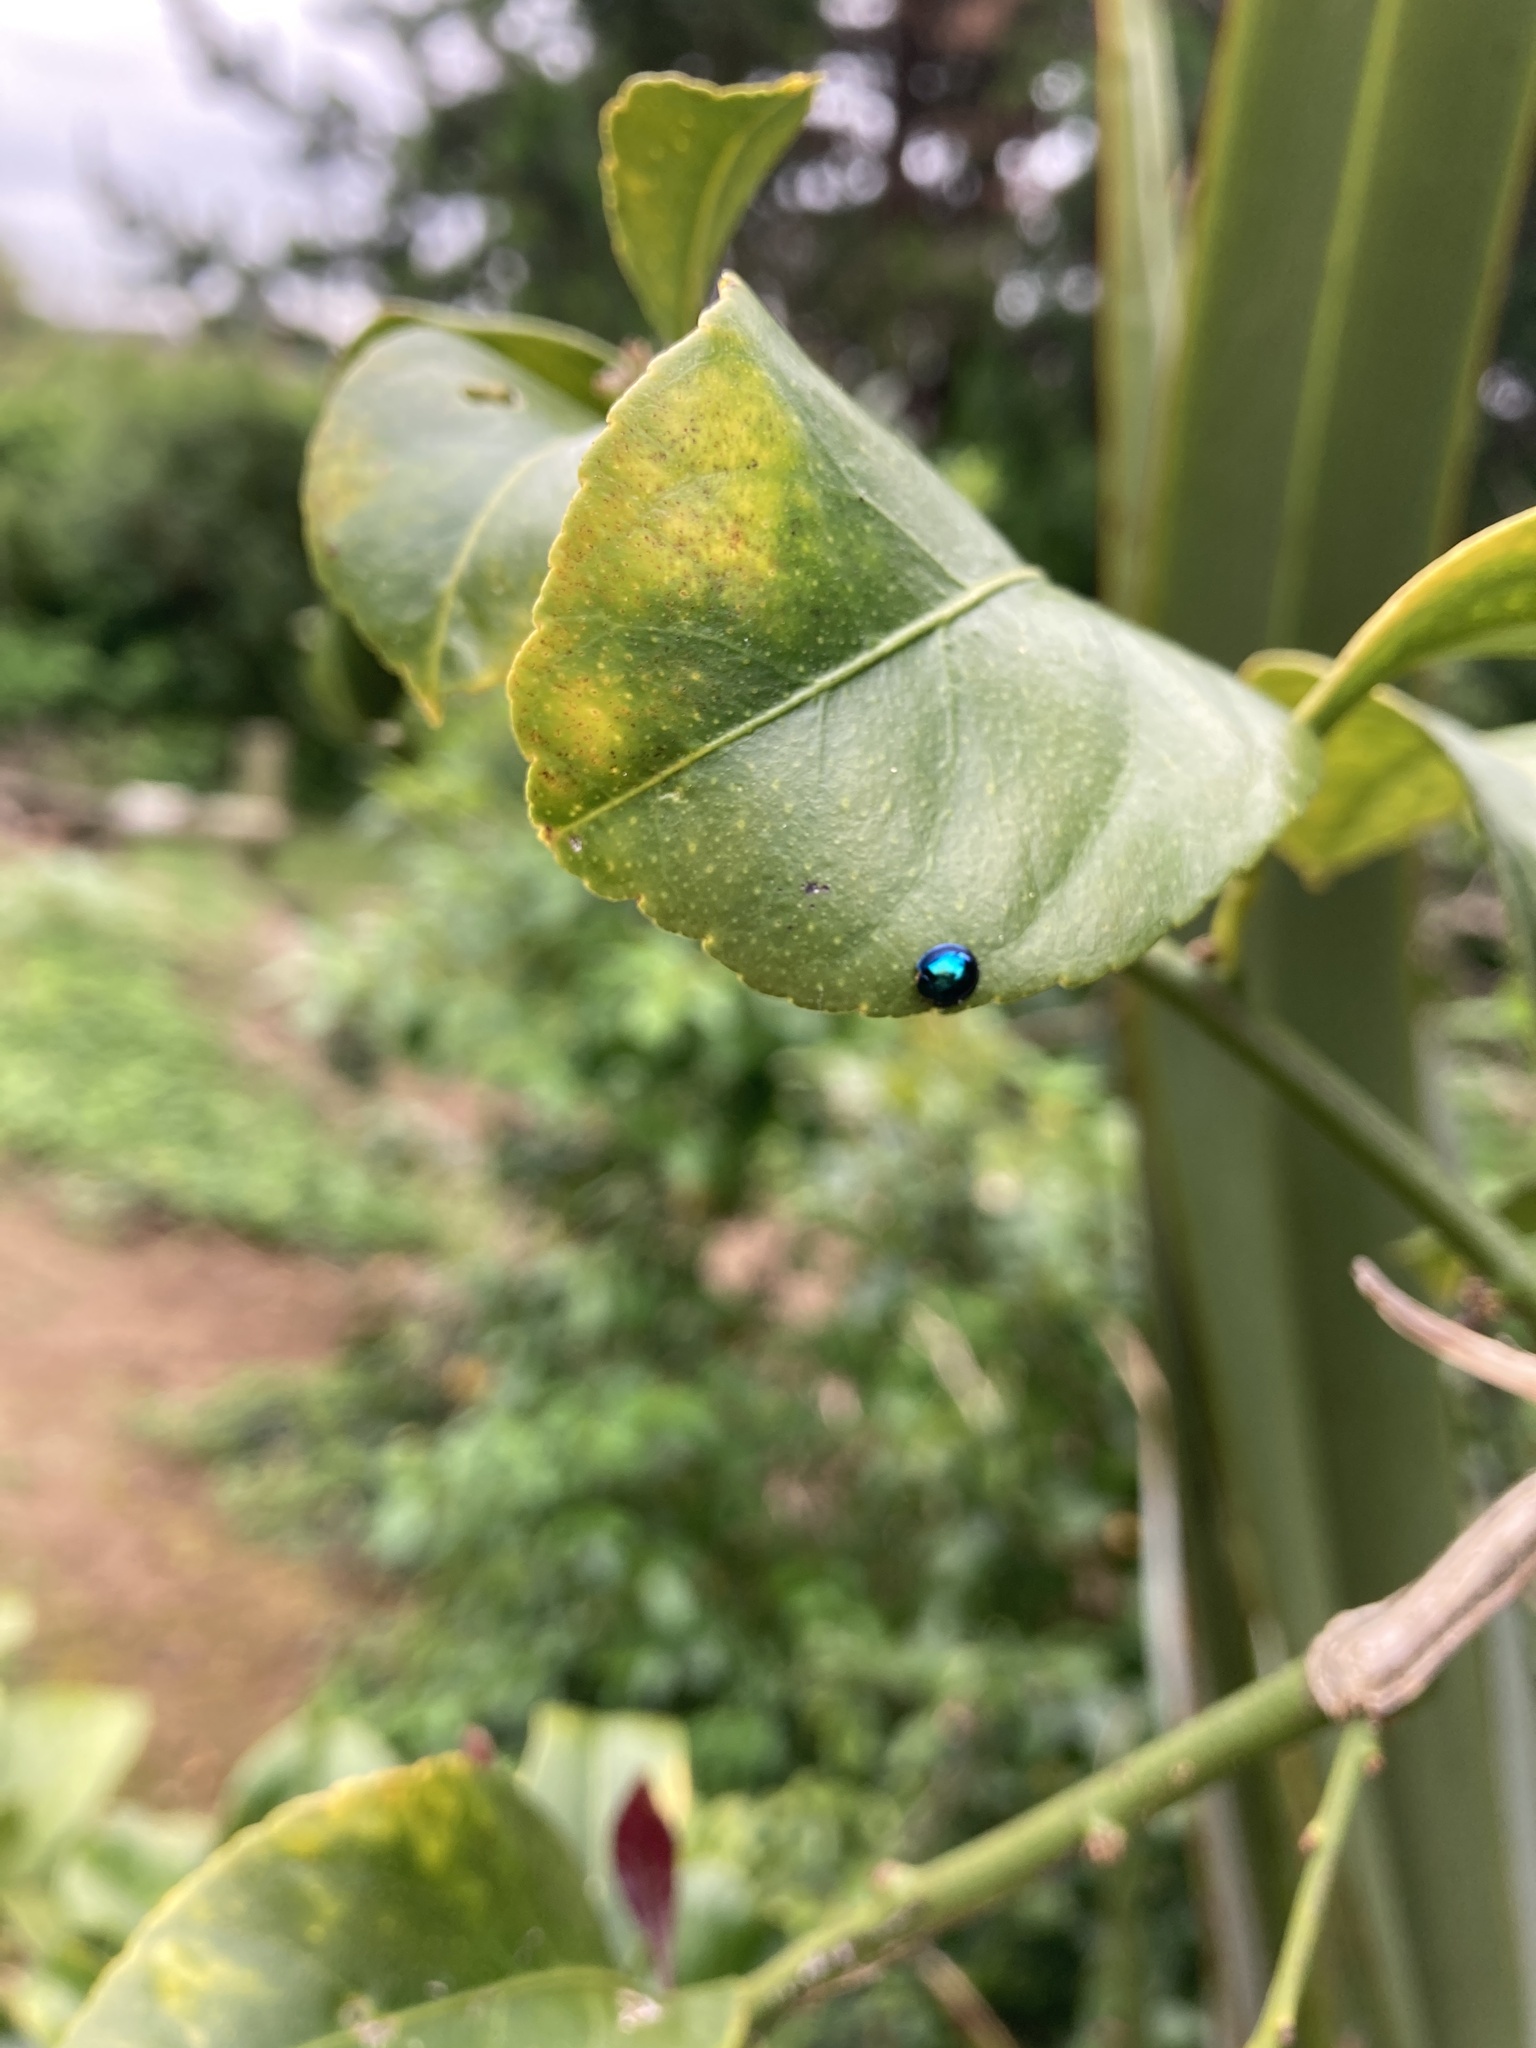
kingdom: Animalia
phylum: Arthropoda
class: Insecta
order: Coleoptera
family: Coccinellidae
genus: Halmus
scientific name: Halmus chalybeus
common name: Steel blue ladybird beetle
